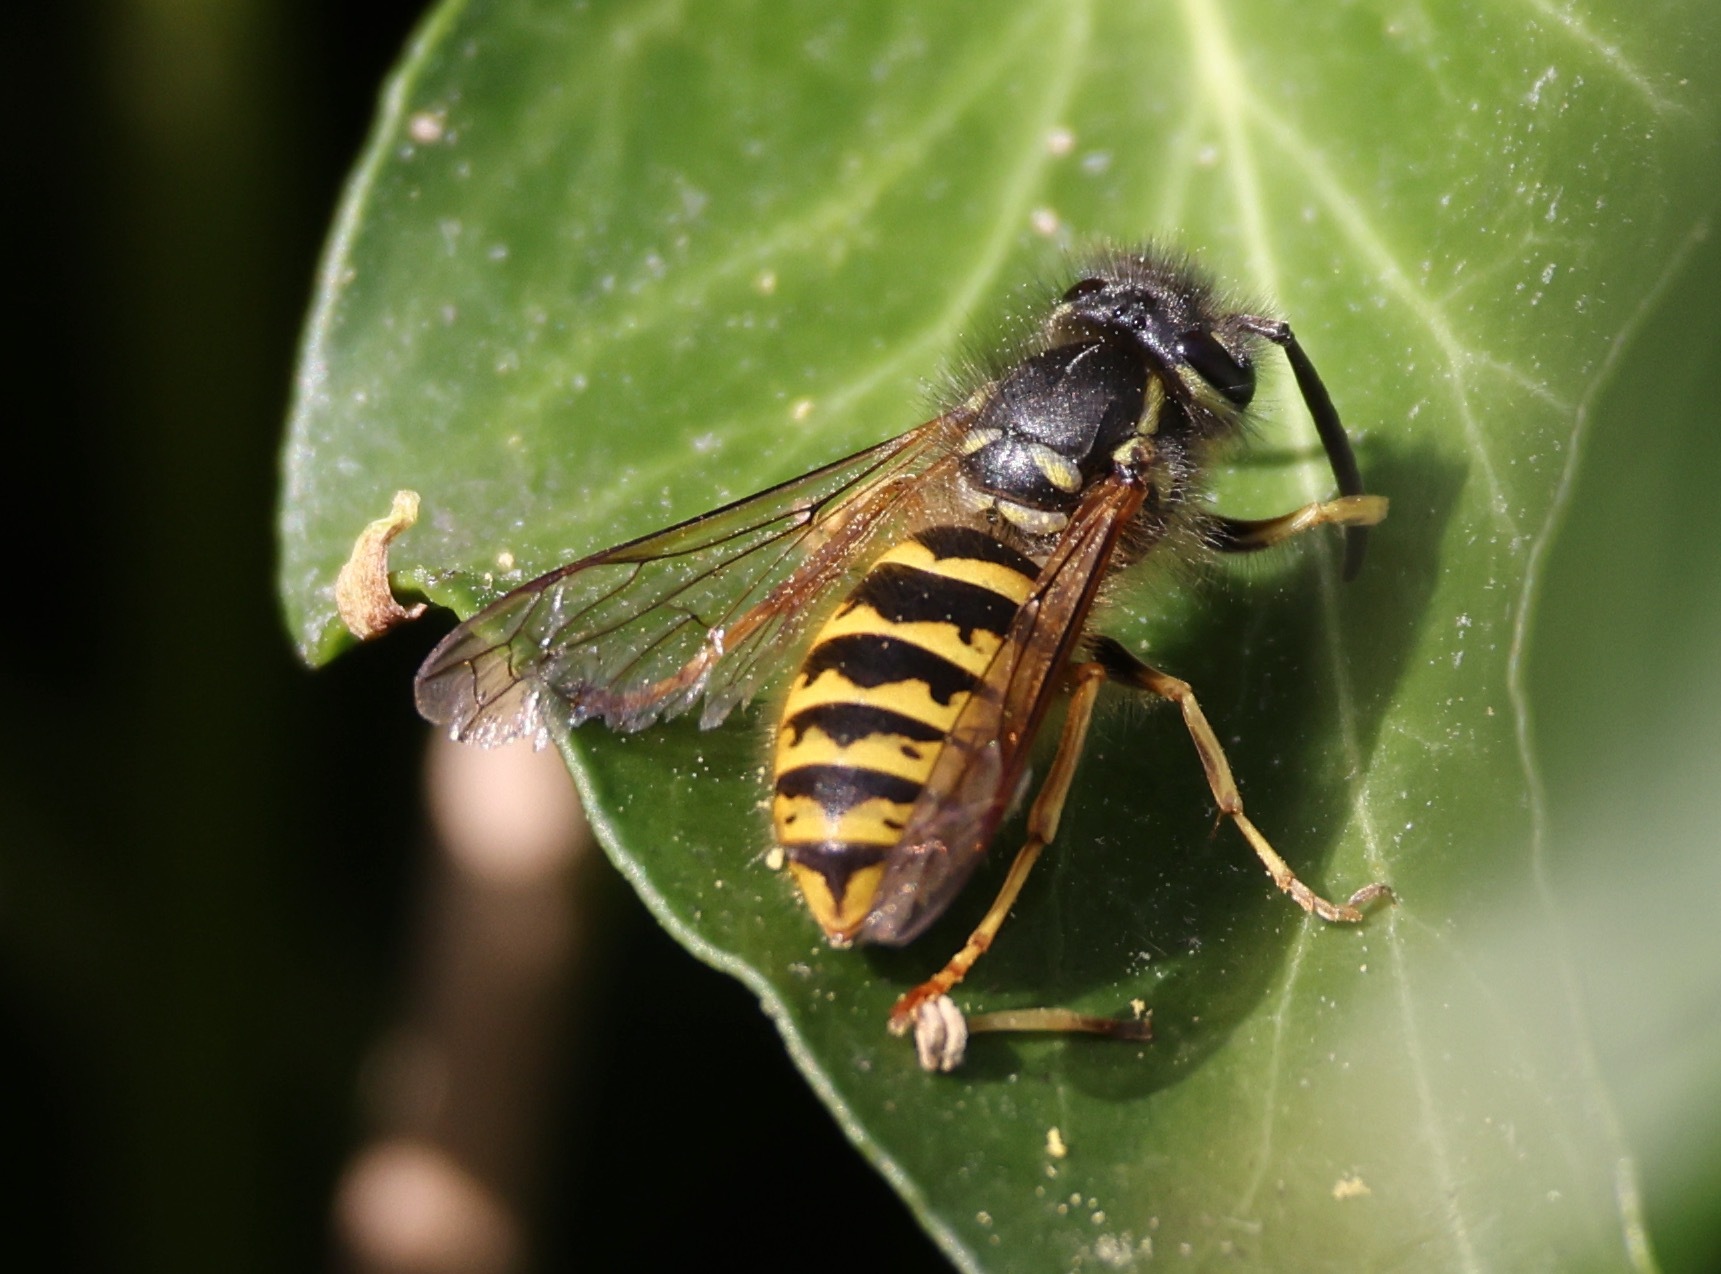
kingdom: Animalia
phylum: Arthropoda
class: Insecta
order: Hymenoptera
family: Vespidae
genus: Vespula
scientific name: Vespula vulgaris
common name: Common wasp
